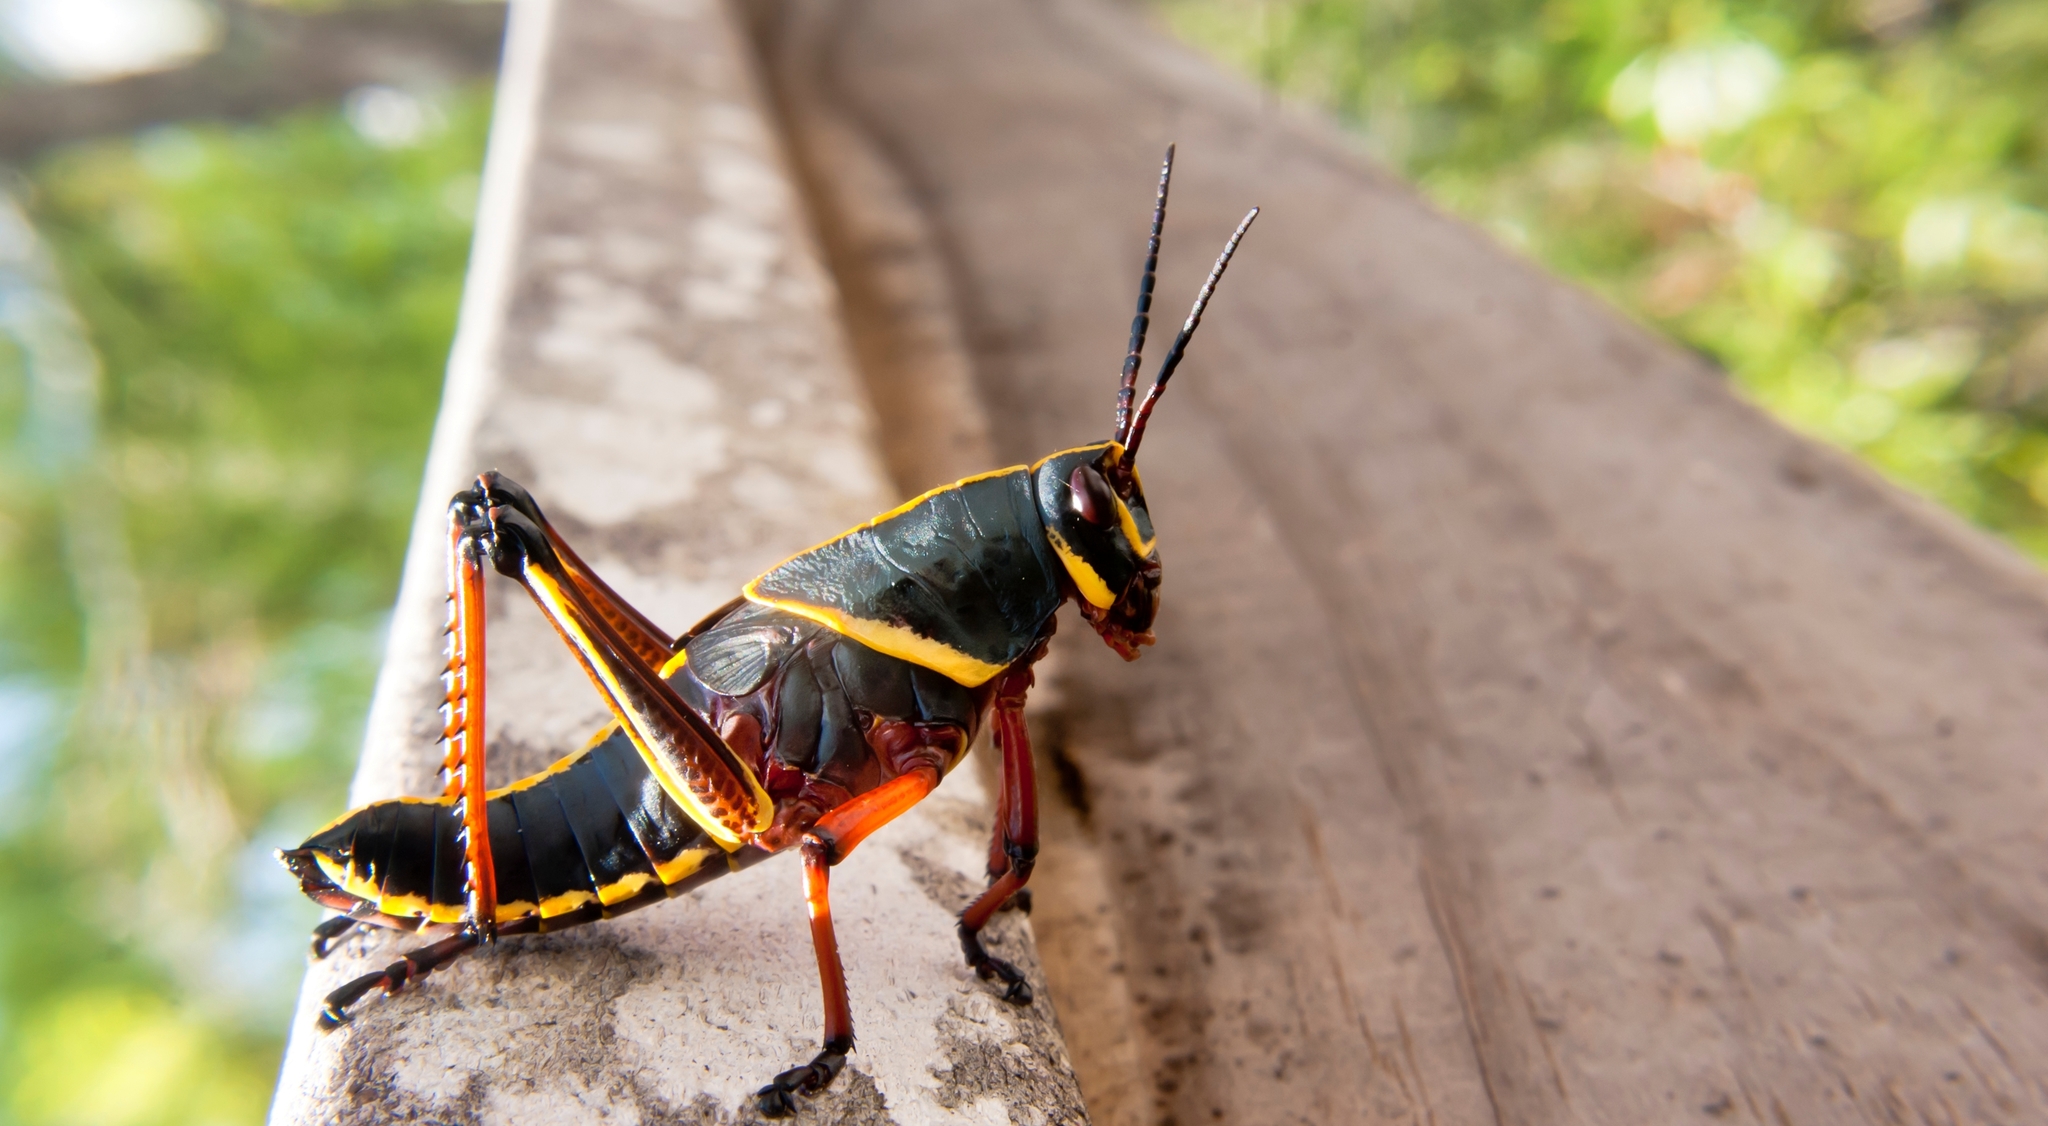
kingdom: Animalia
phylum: Arthropoda
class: Insecta
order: Orthoptera
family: Romaleidae
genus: Romalea
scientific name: Romalea microptera
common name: Eastern lubber grasshopper
